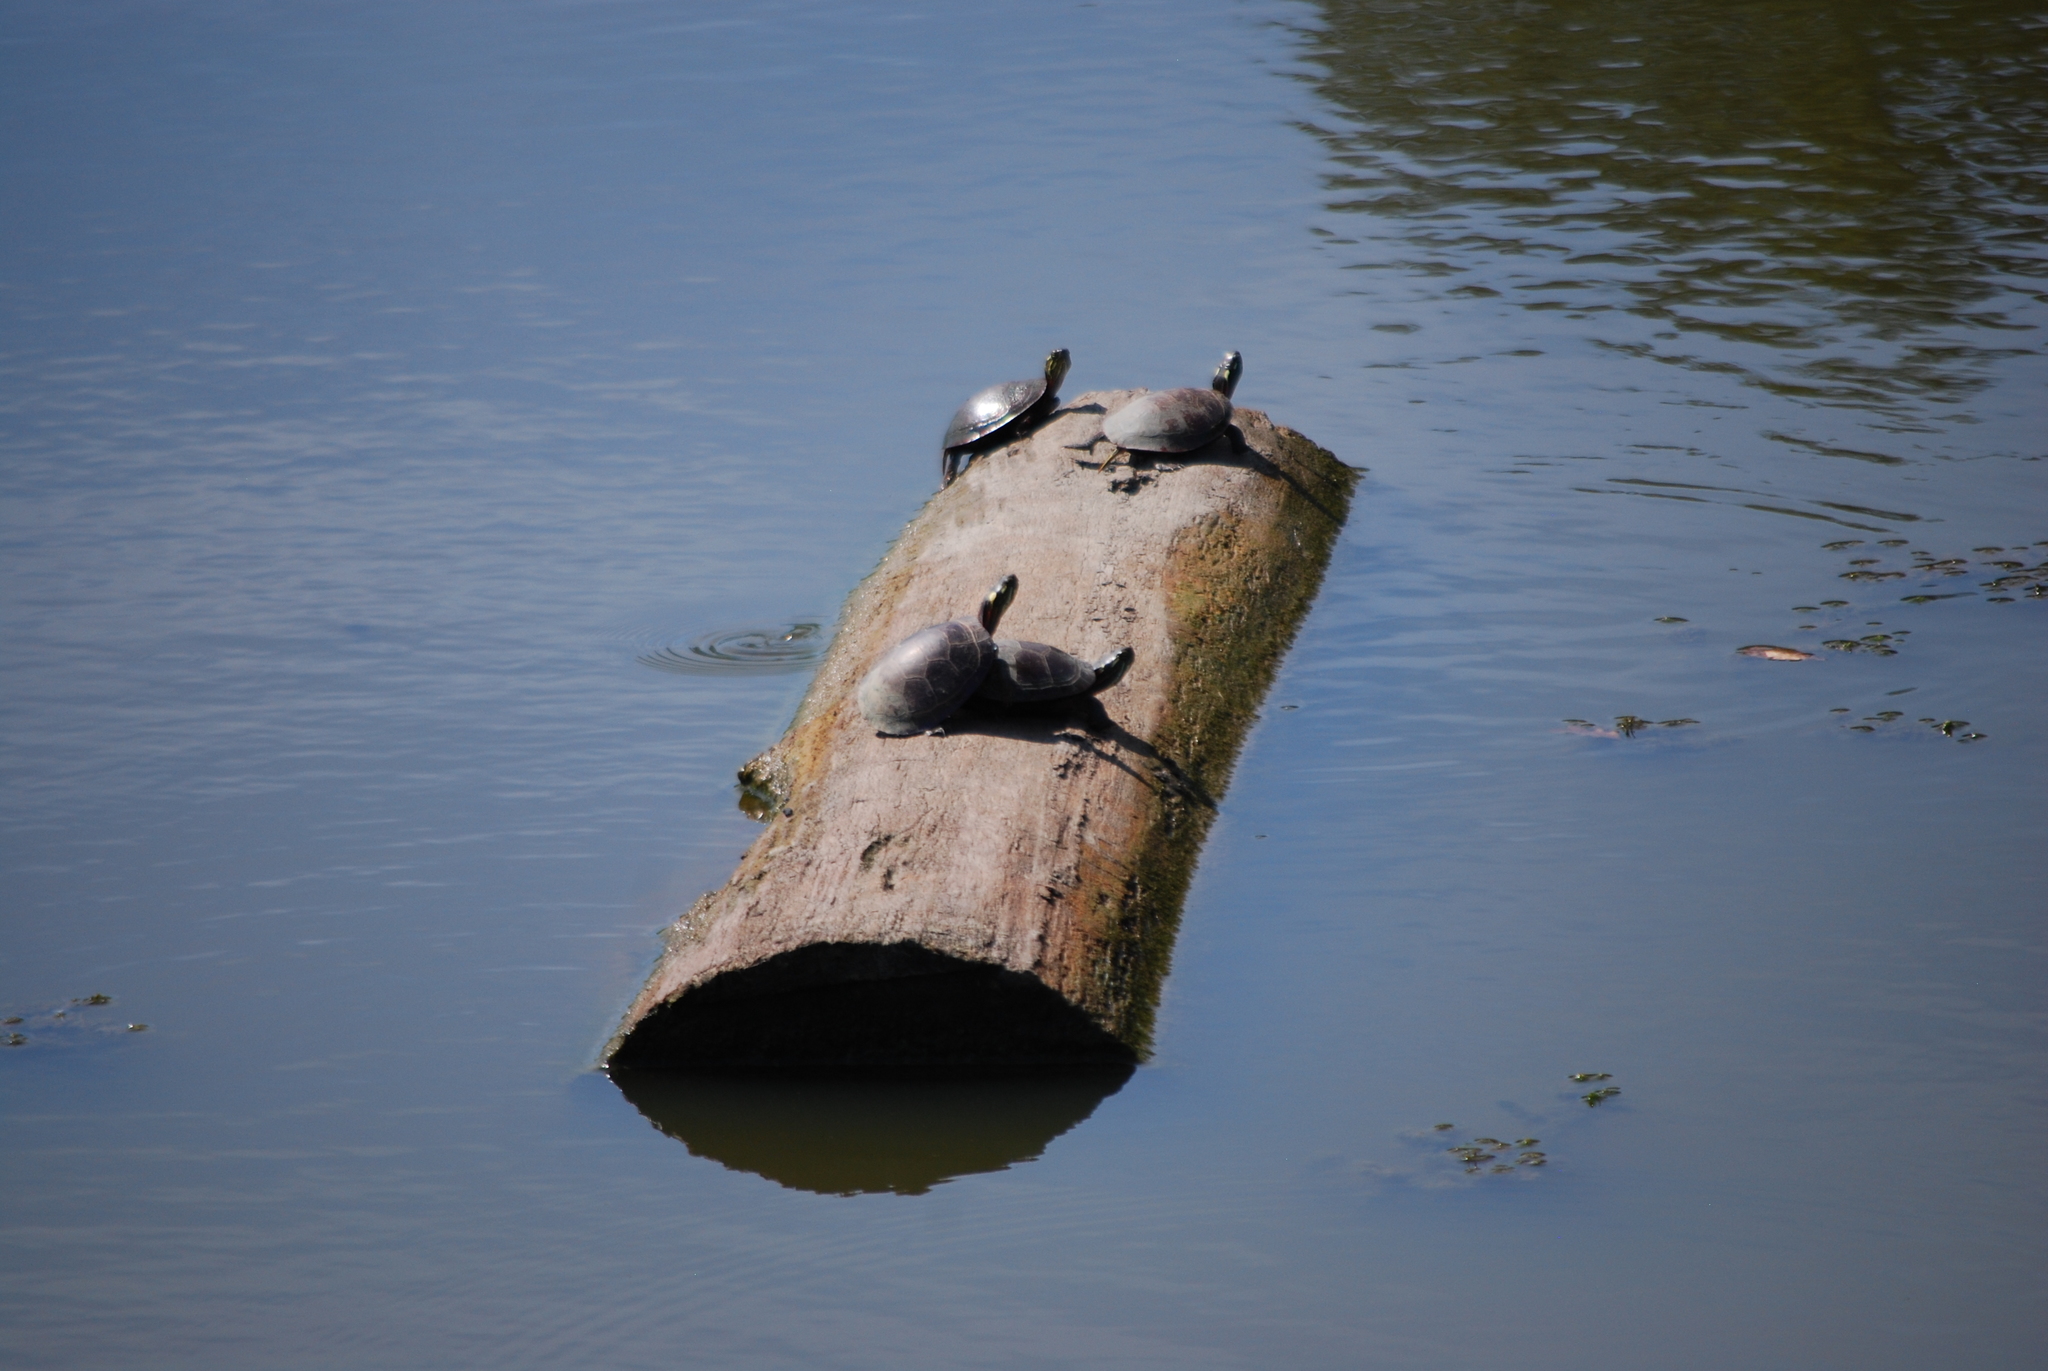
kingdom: Animalia
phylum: Chordata
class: Testudines
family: Emydidae
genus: Chrysemys
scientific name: Chrysemys picta
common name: Painted turtle
